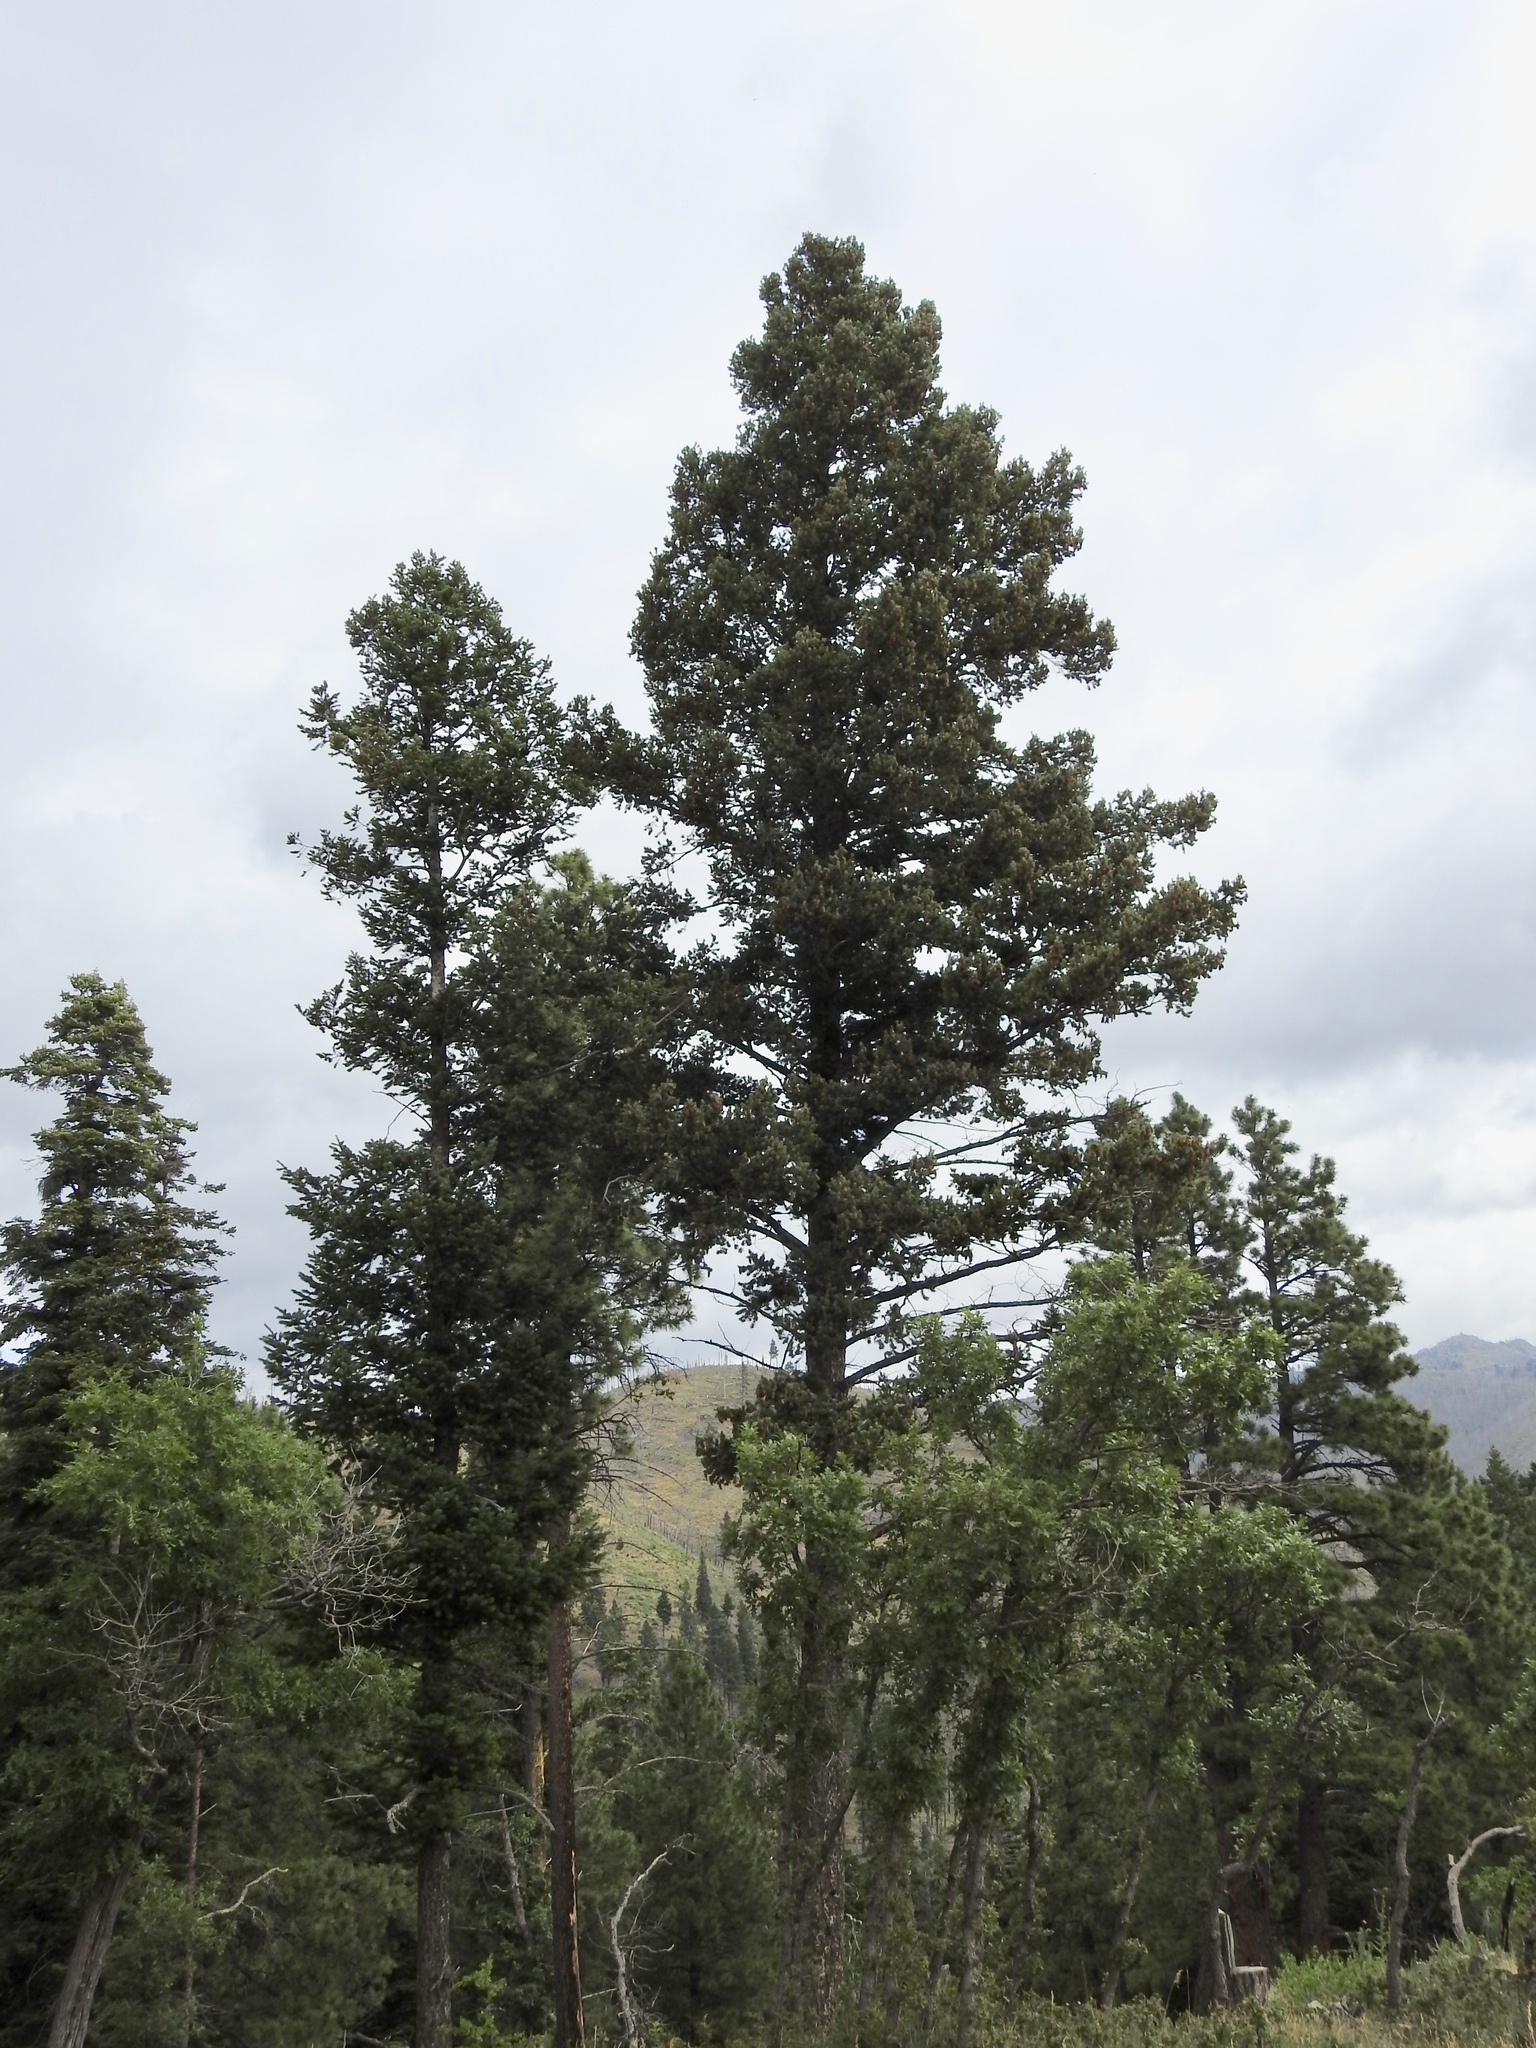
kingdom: Plantae
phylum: Tracheophyta
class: Pinopsida
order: Pinales
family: Pinaceae
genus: Pseudotsuga
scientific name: Pseudotsuga menziesii
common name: Douglas fir
